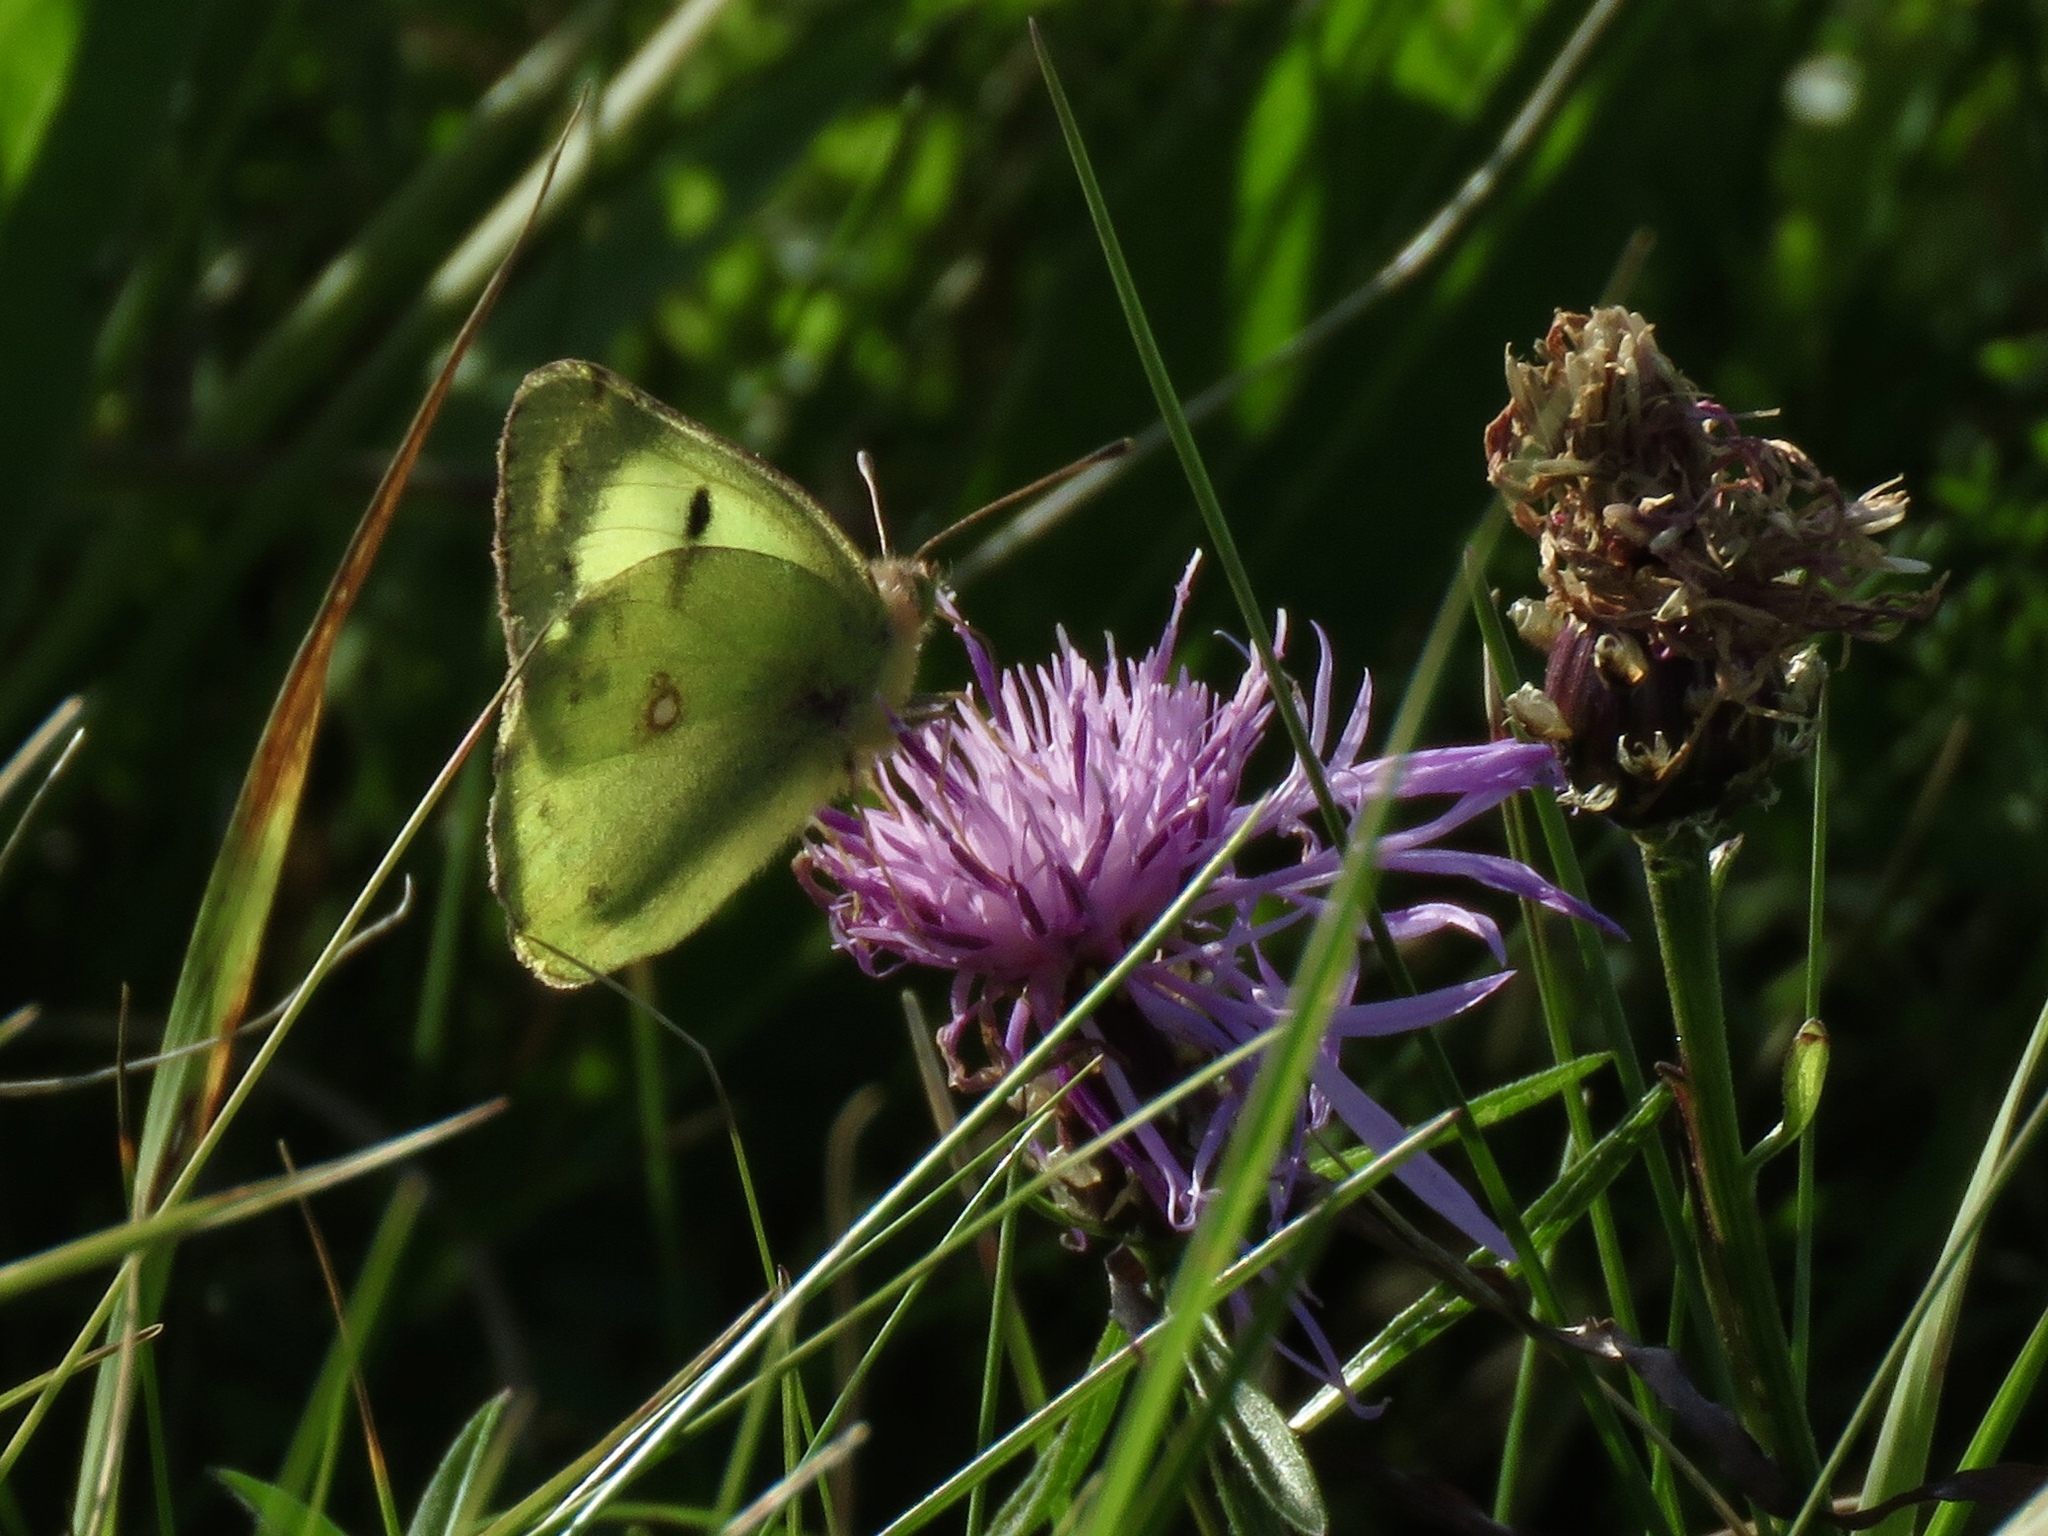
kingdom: Animalia
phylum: Arthropoda
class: Insecta
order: Lepidoptera
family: Pieridae
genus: Colias
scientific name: Colias hyale
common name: Pale clouded yellow
